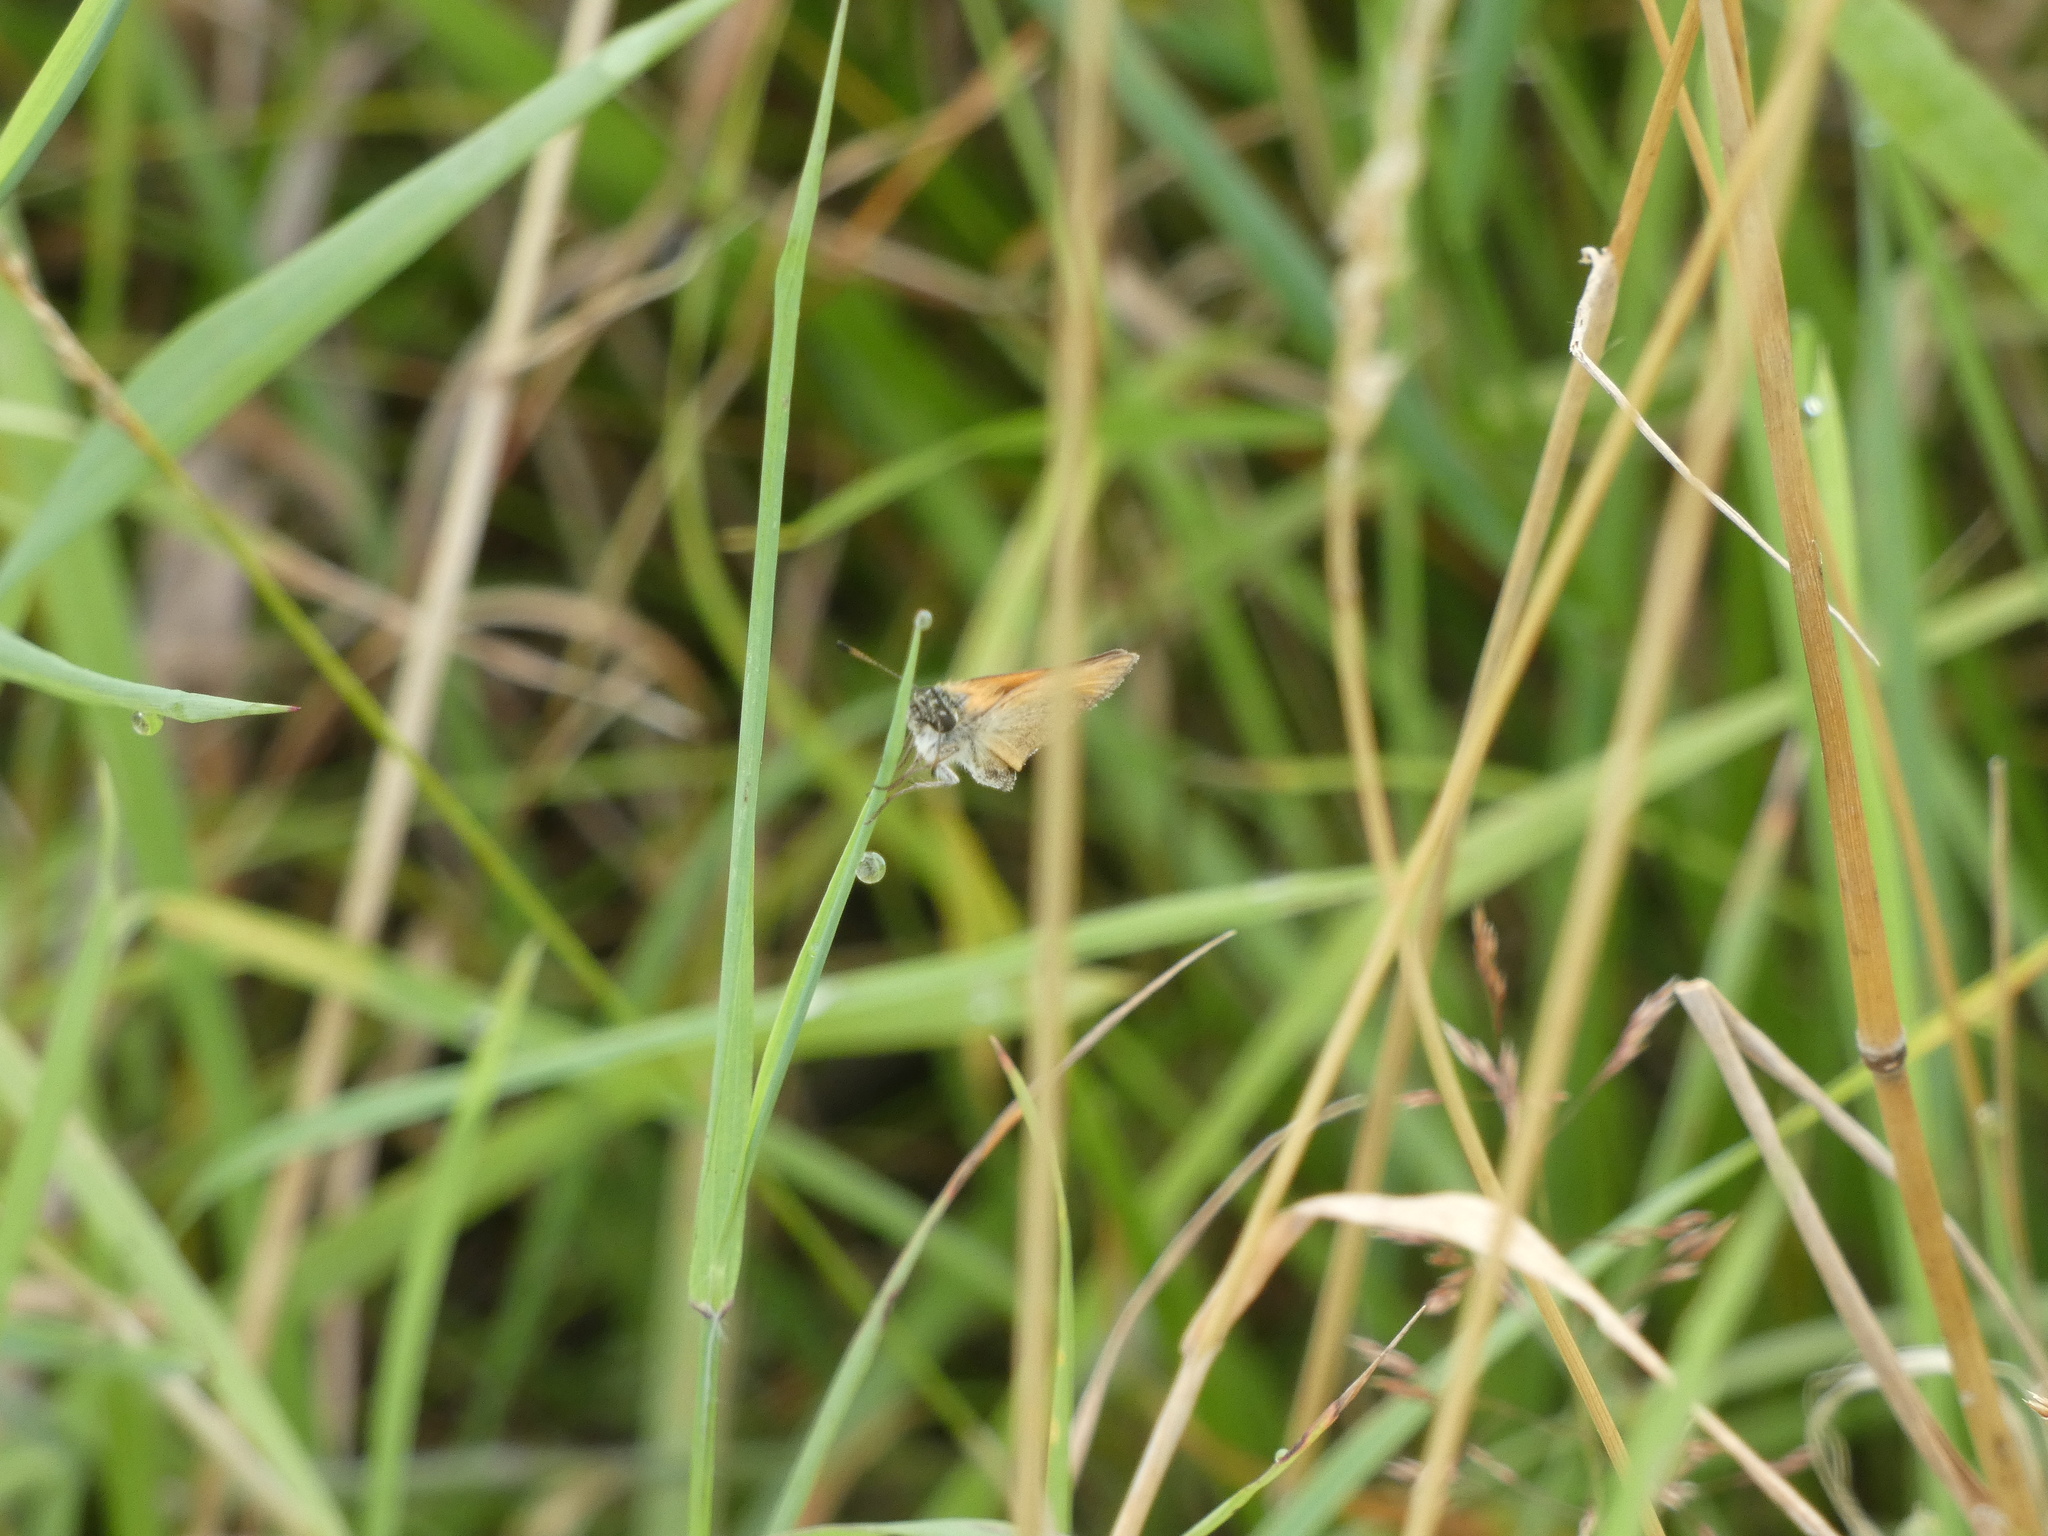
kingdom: Animalia
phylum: Arthropoda
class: Insecta
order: Lepidoptera
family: Hesperiidae
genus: Thymelicus
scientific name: Thymelicus lineola
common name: Essex skipper
